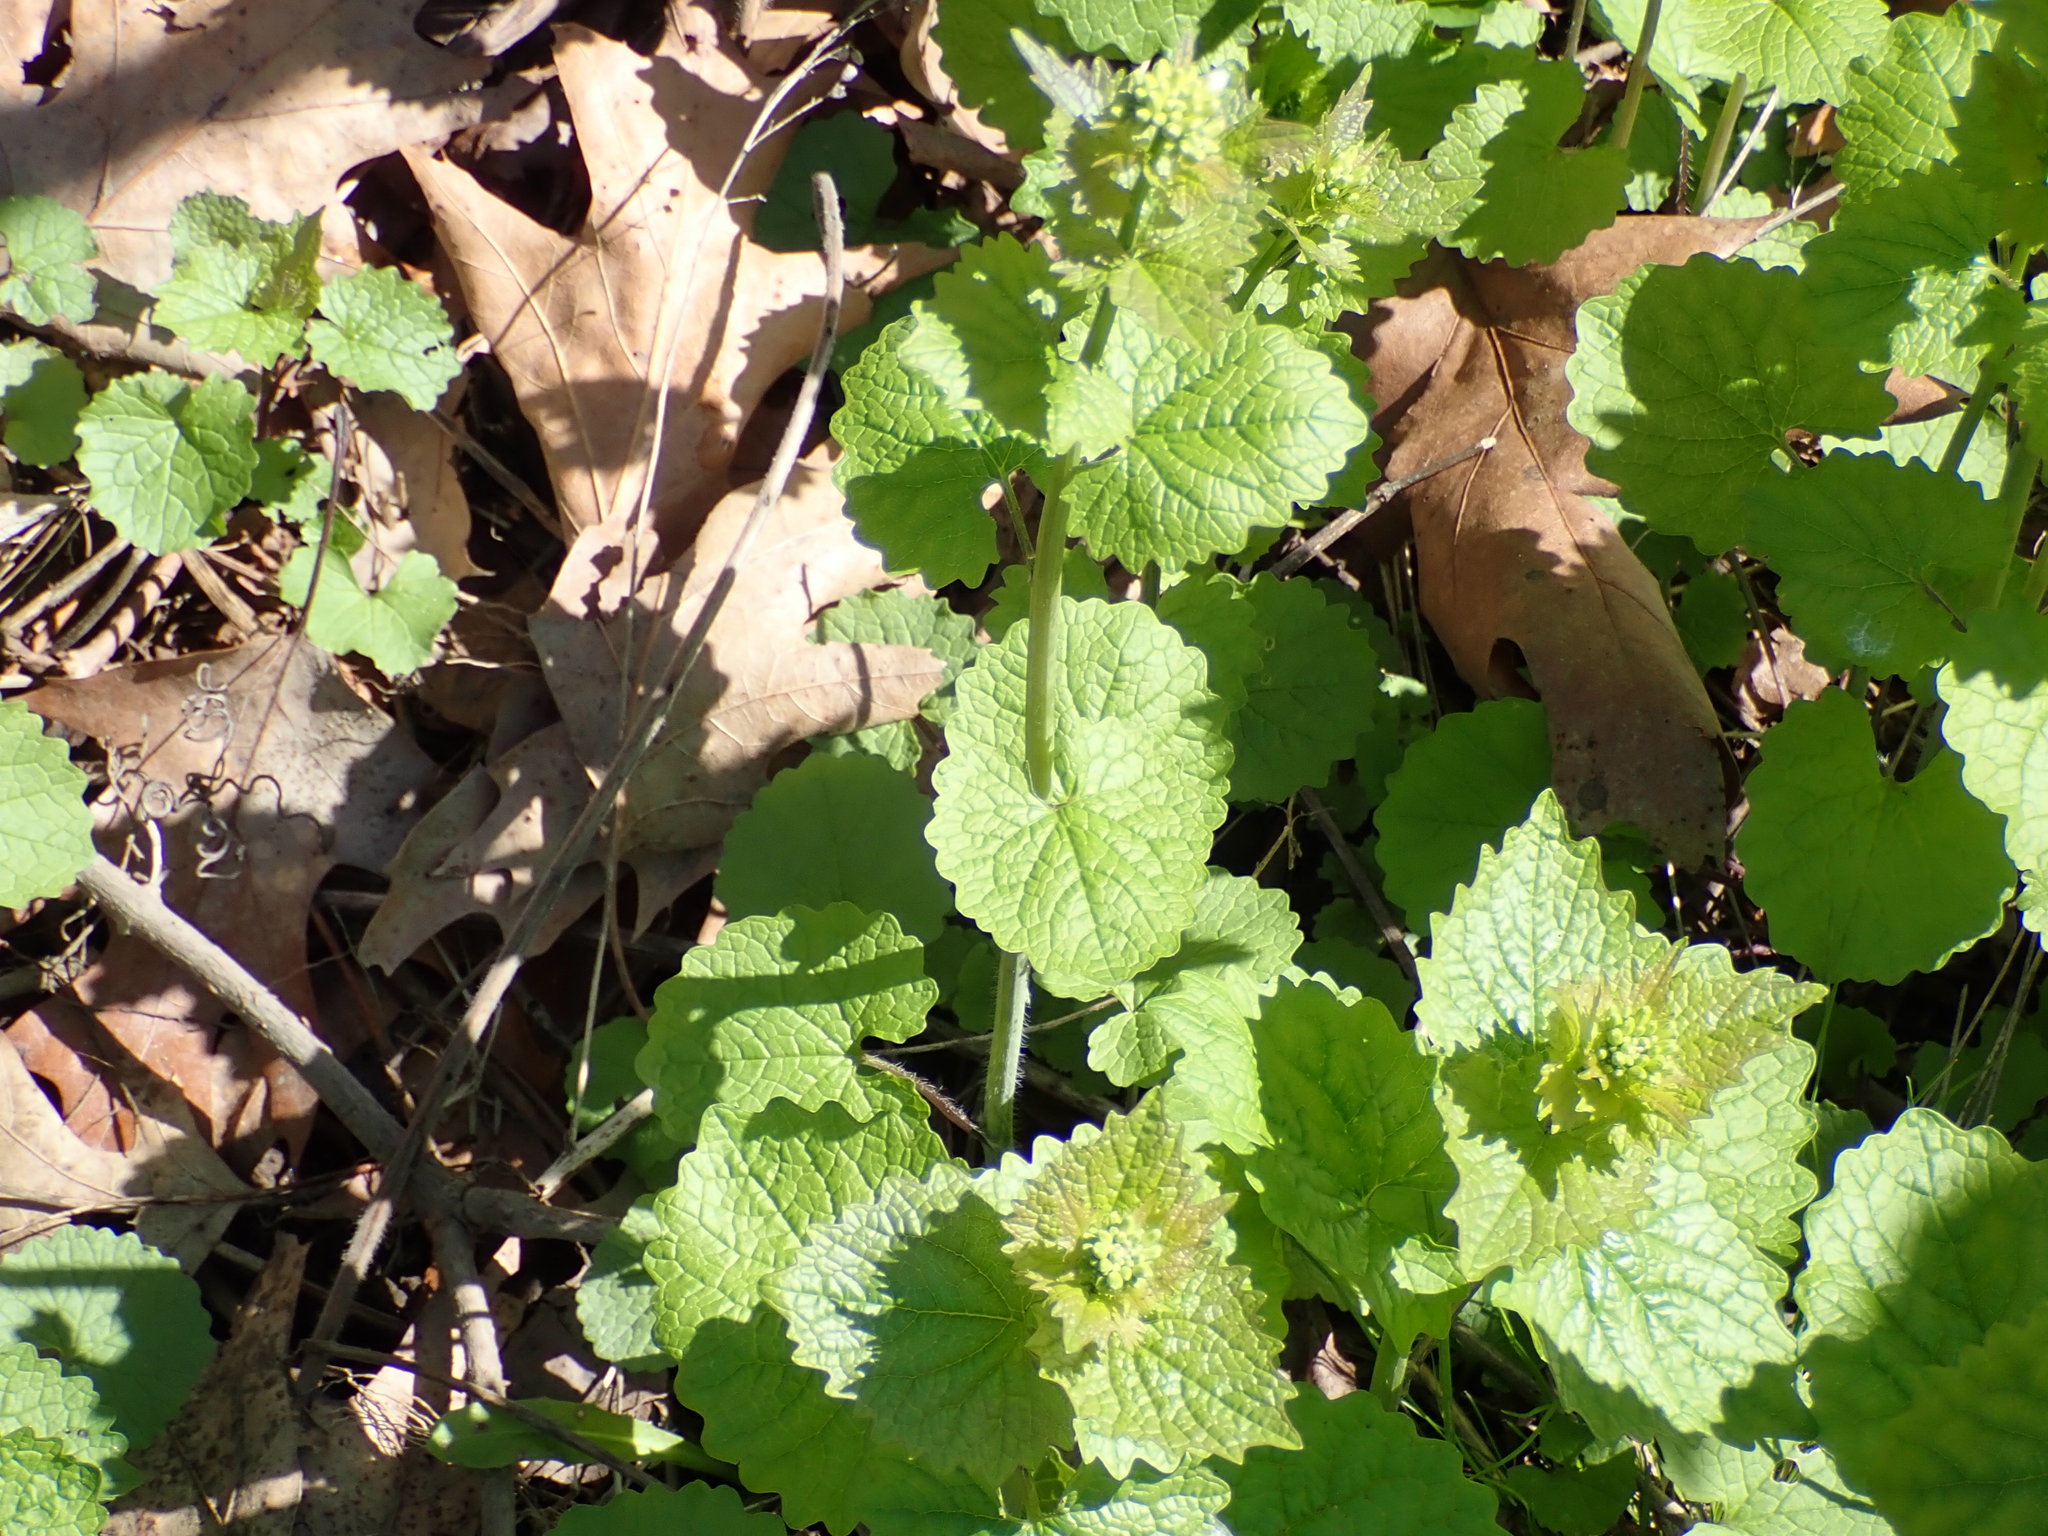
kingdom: Plantae
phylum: Tracheophyta
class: Magnoliopsida
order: Brassicales
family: Brassicaceae
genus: Alliaria
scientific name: Alliaria petiolata
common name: Garlic mustard
